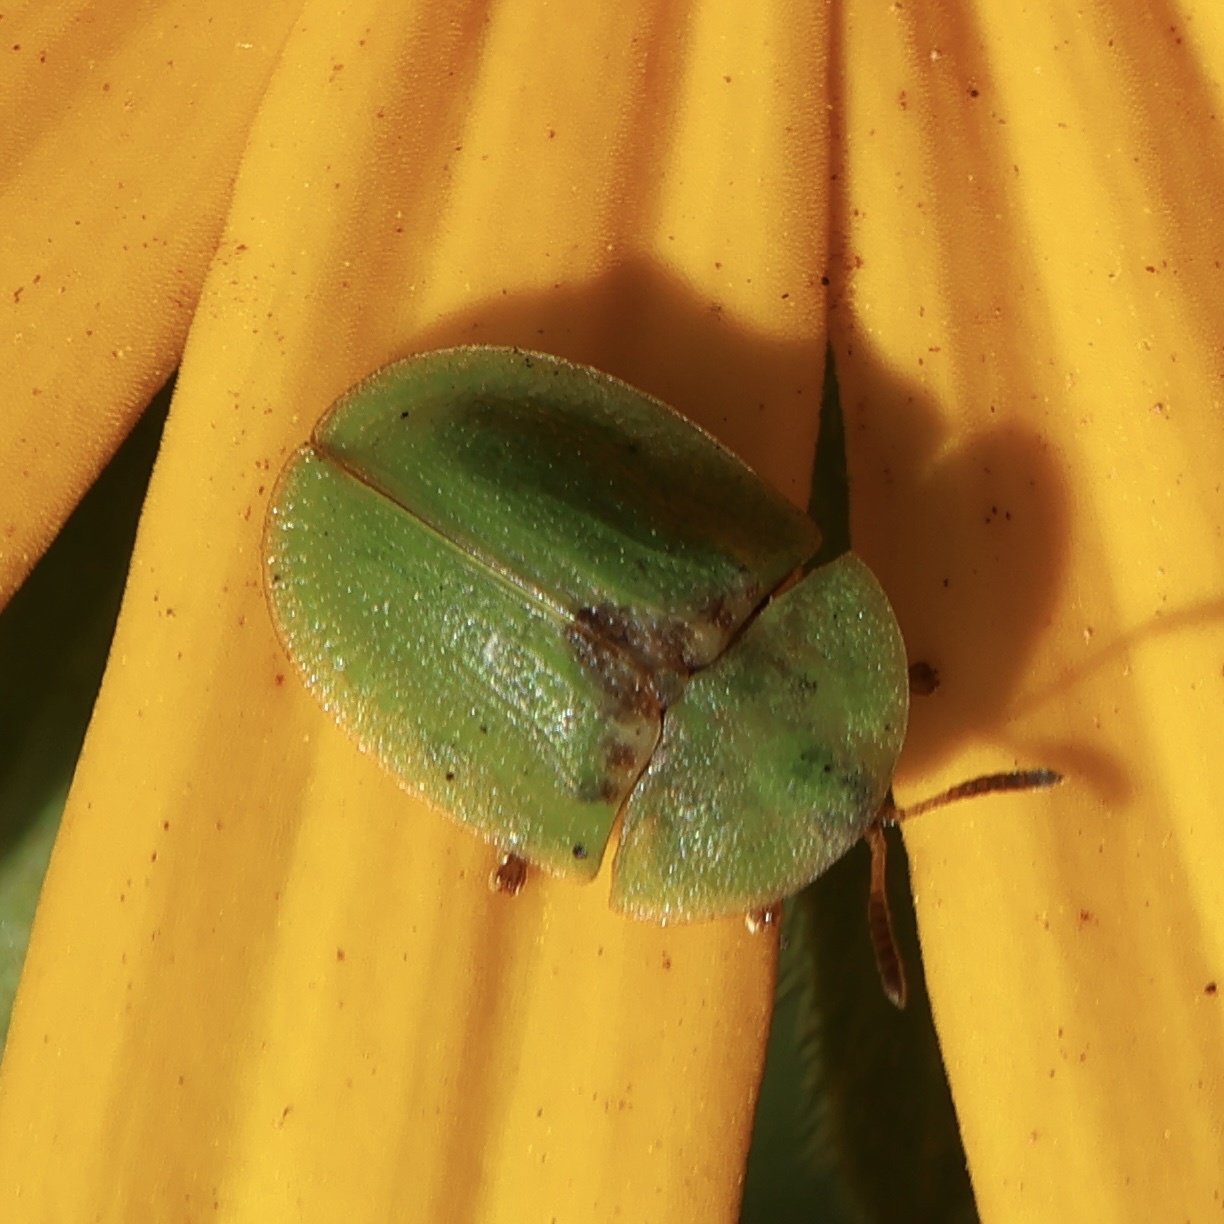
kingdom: Animalia
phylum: Arthropoda
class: Insecta
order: Coleoptera
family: Chrysomelidae
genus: Cassida
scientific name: Cassida rubiginosa
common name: Thistle tortoise beetle
